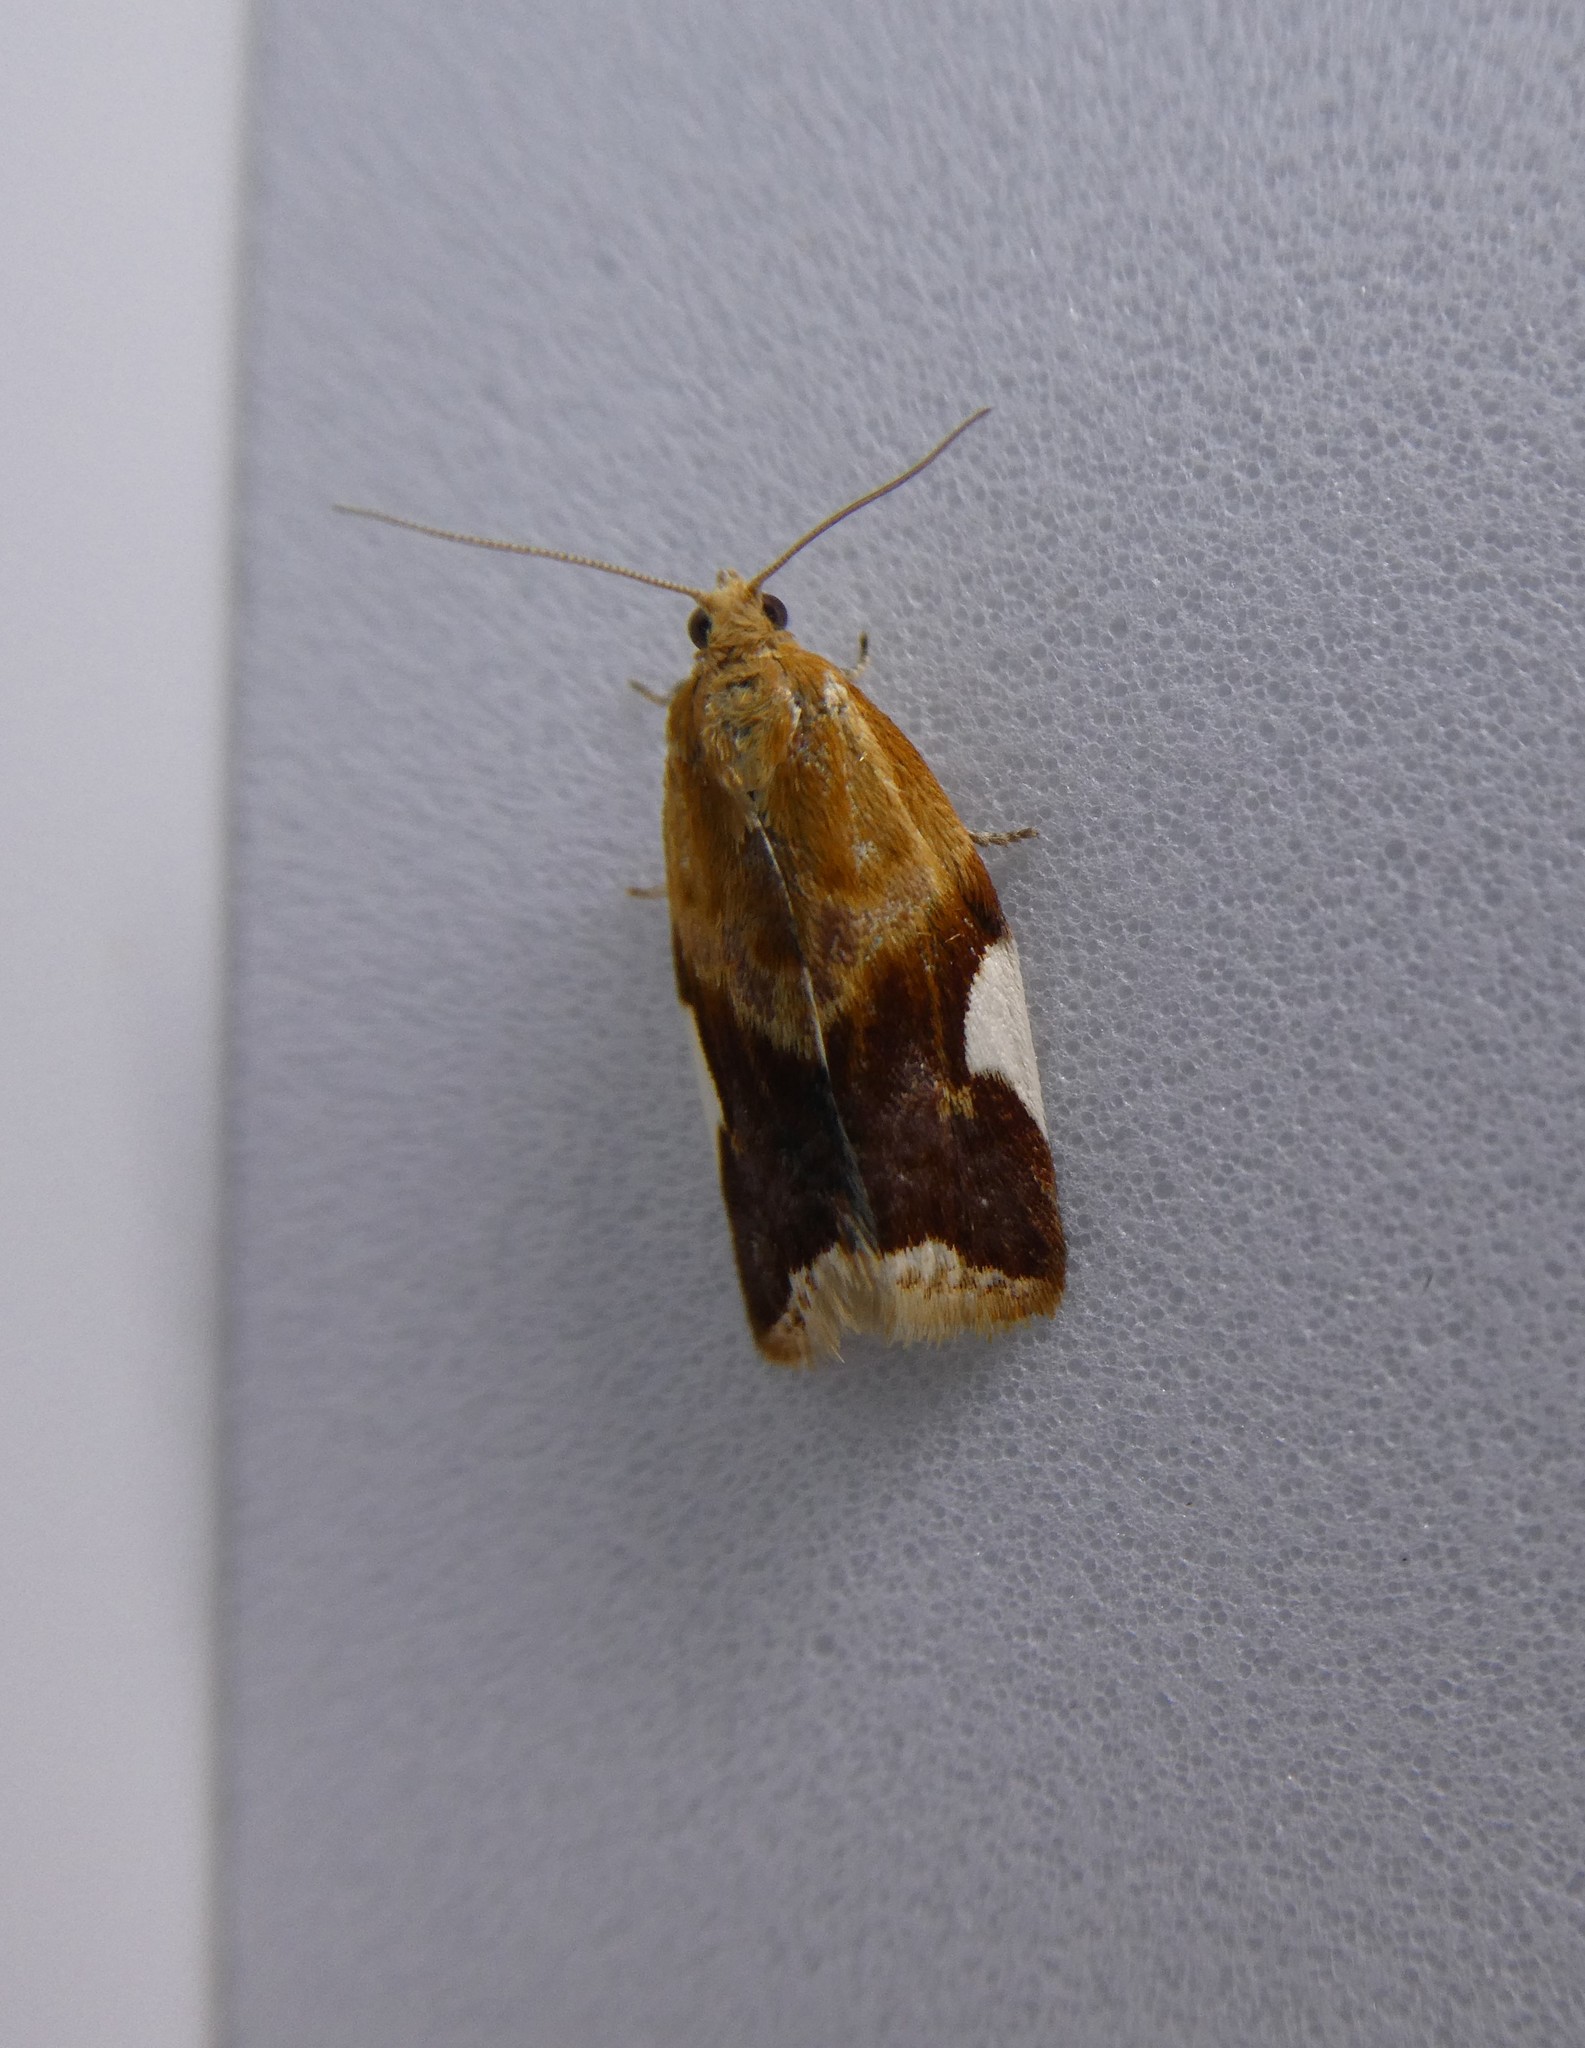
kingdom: Animalia
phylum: Arthropoda
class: Insecta
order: Lepidoptera
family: Tortricidae
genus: Clepsis
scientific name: Clepsis persicana
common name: White triangle tortrix
